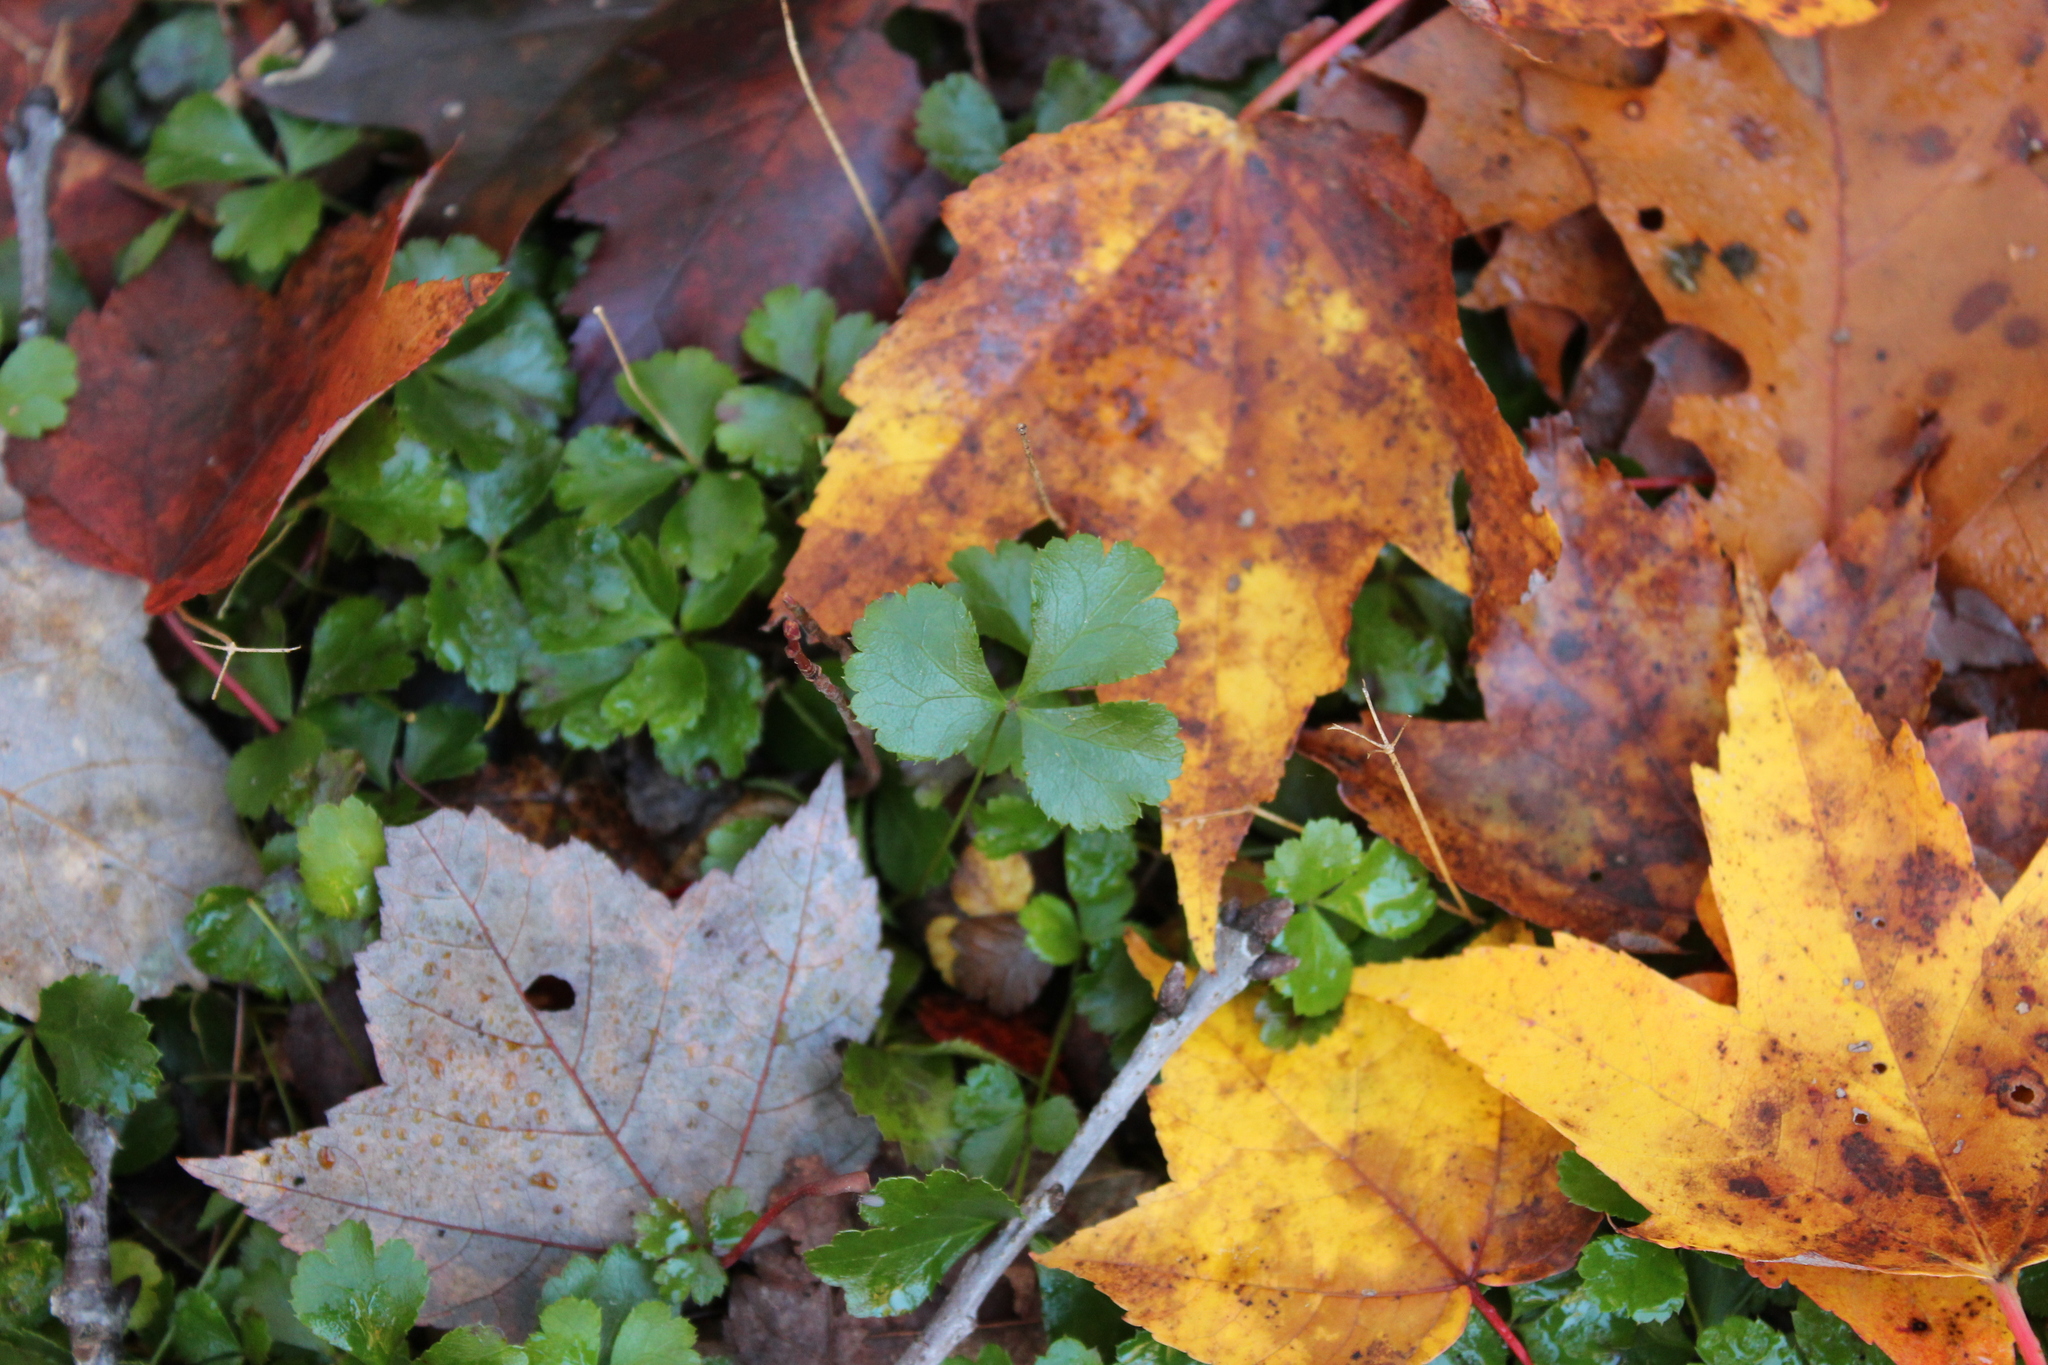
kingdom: Plantae
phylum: Tracheophyta
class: Magnoliopsida
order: Ranunculales
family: Ranunculaceae
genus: Coptis
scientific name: Coptis trifolia
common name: Canker-root
